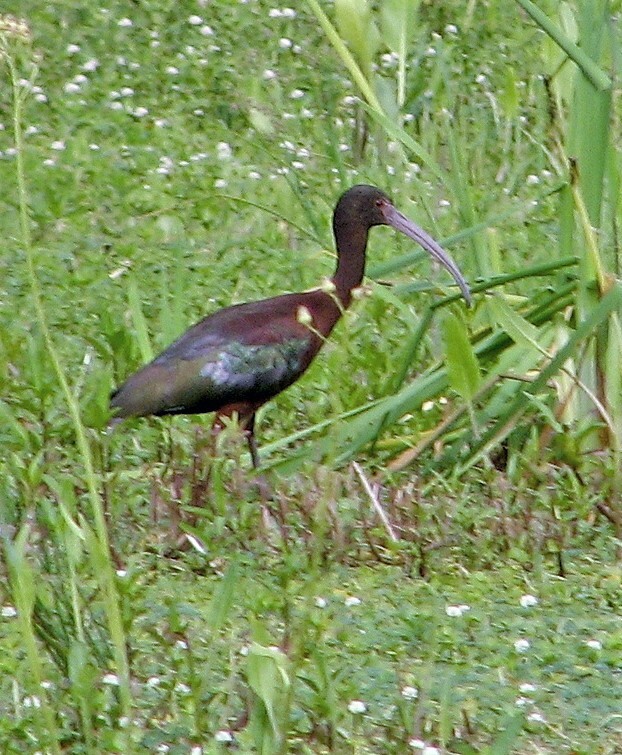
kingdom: Animalia
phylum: Chordata
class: Aves
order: Pelecaniformes
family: Threskiornithidae
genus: Plegadis
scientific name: Plegadis chihi
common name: White-faced ibis
